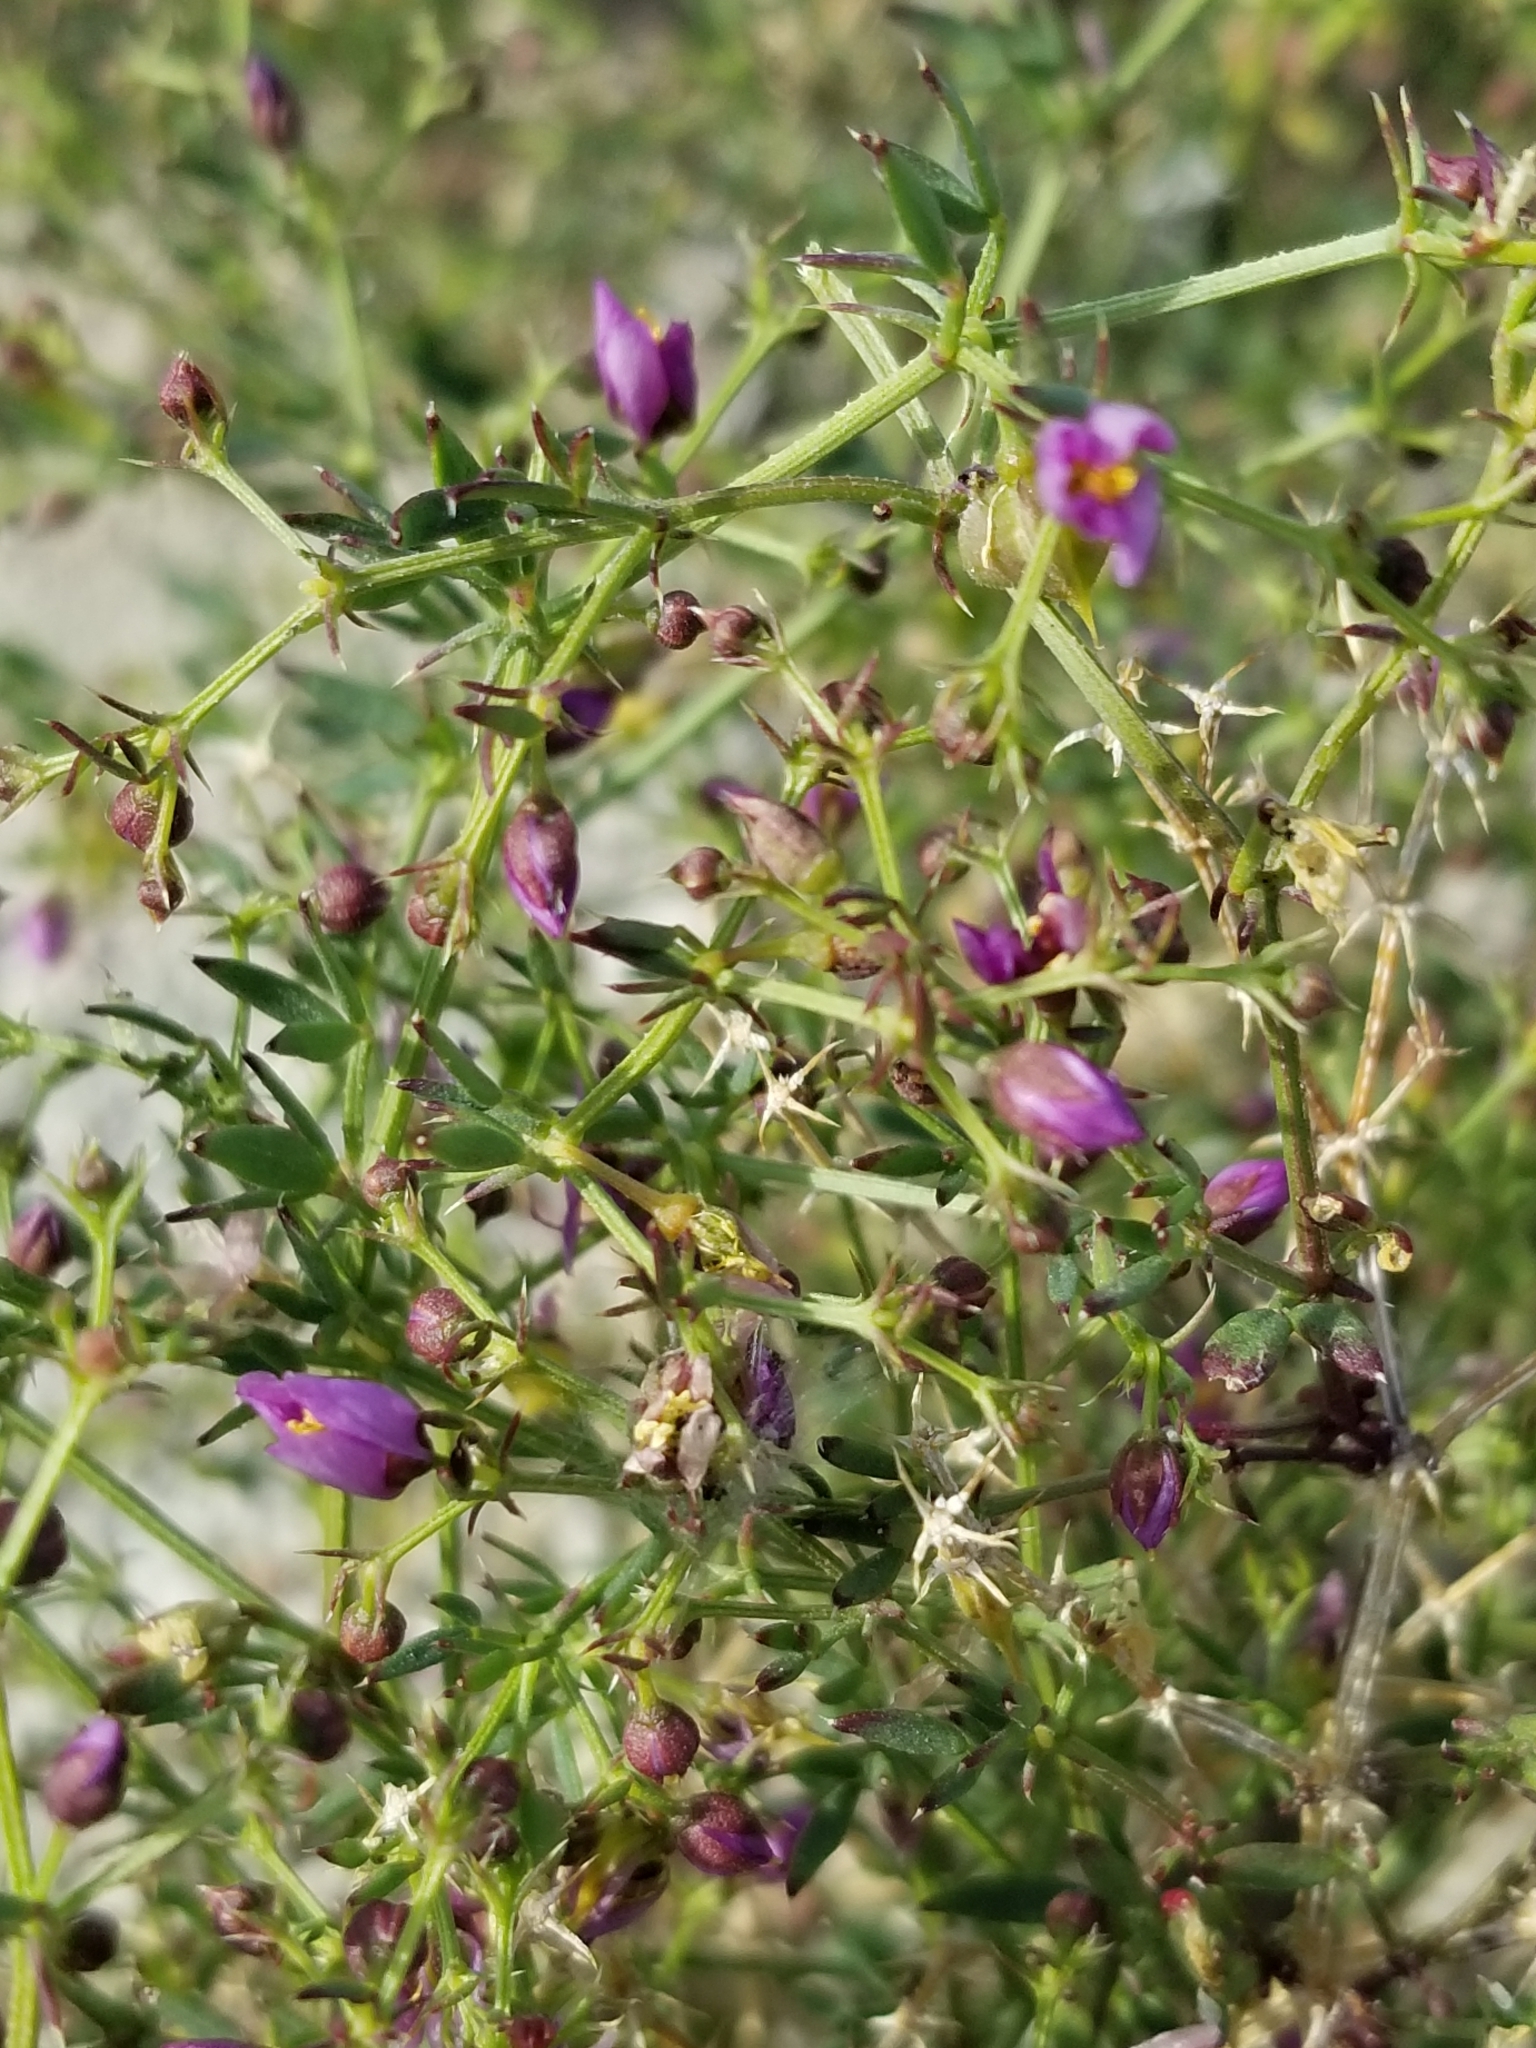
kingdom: Plantae
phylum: Tracheophyta
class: Magnoliopsida
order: Zygophyllales
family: Zygophyllaceae
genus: Fagonia
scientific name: Fagonia laevis
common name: California fagonbush
